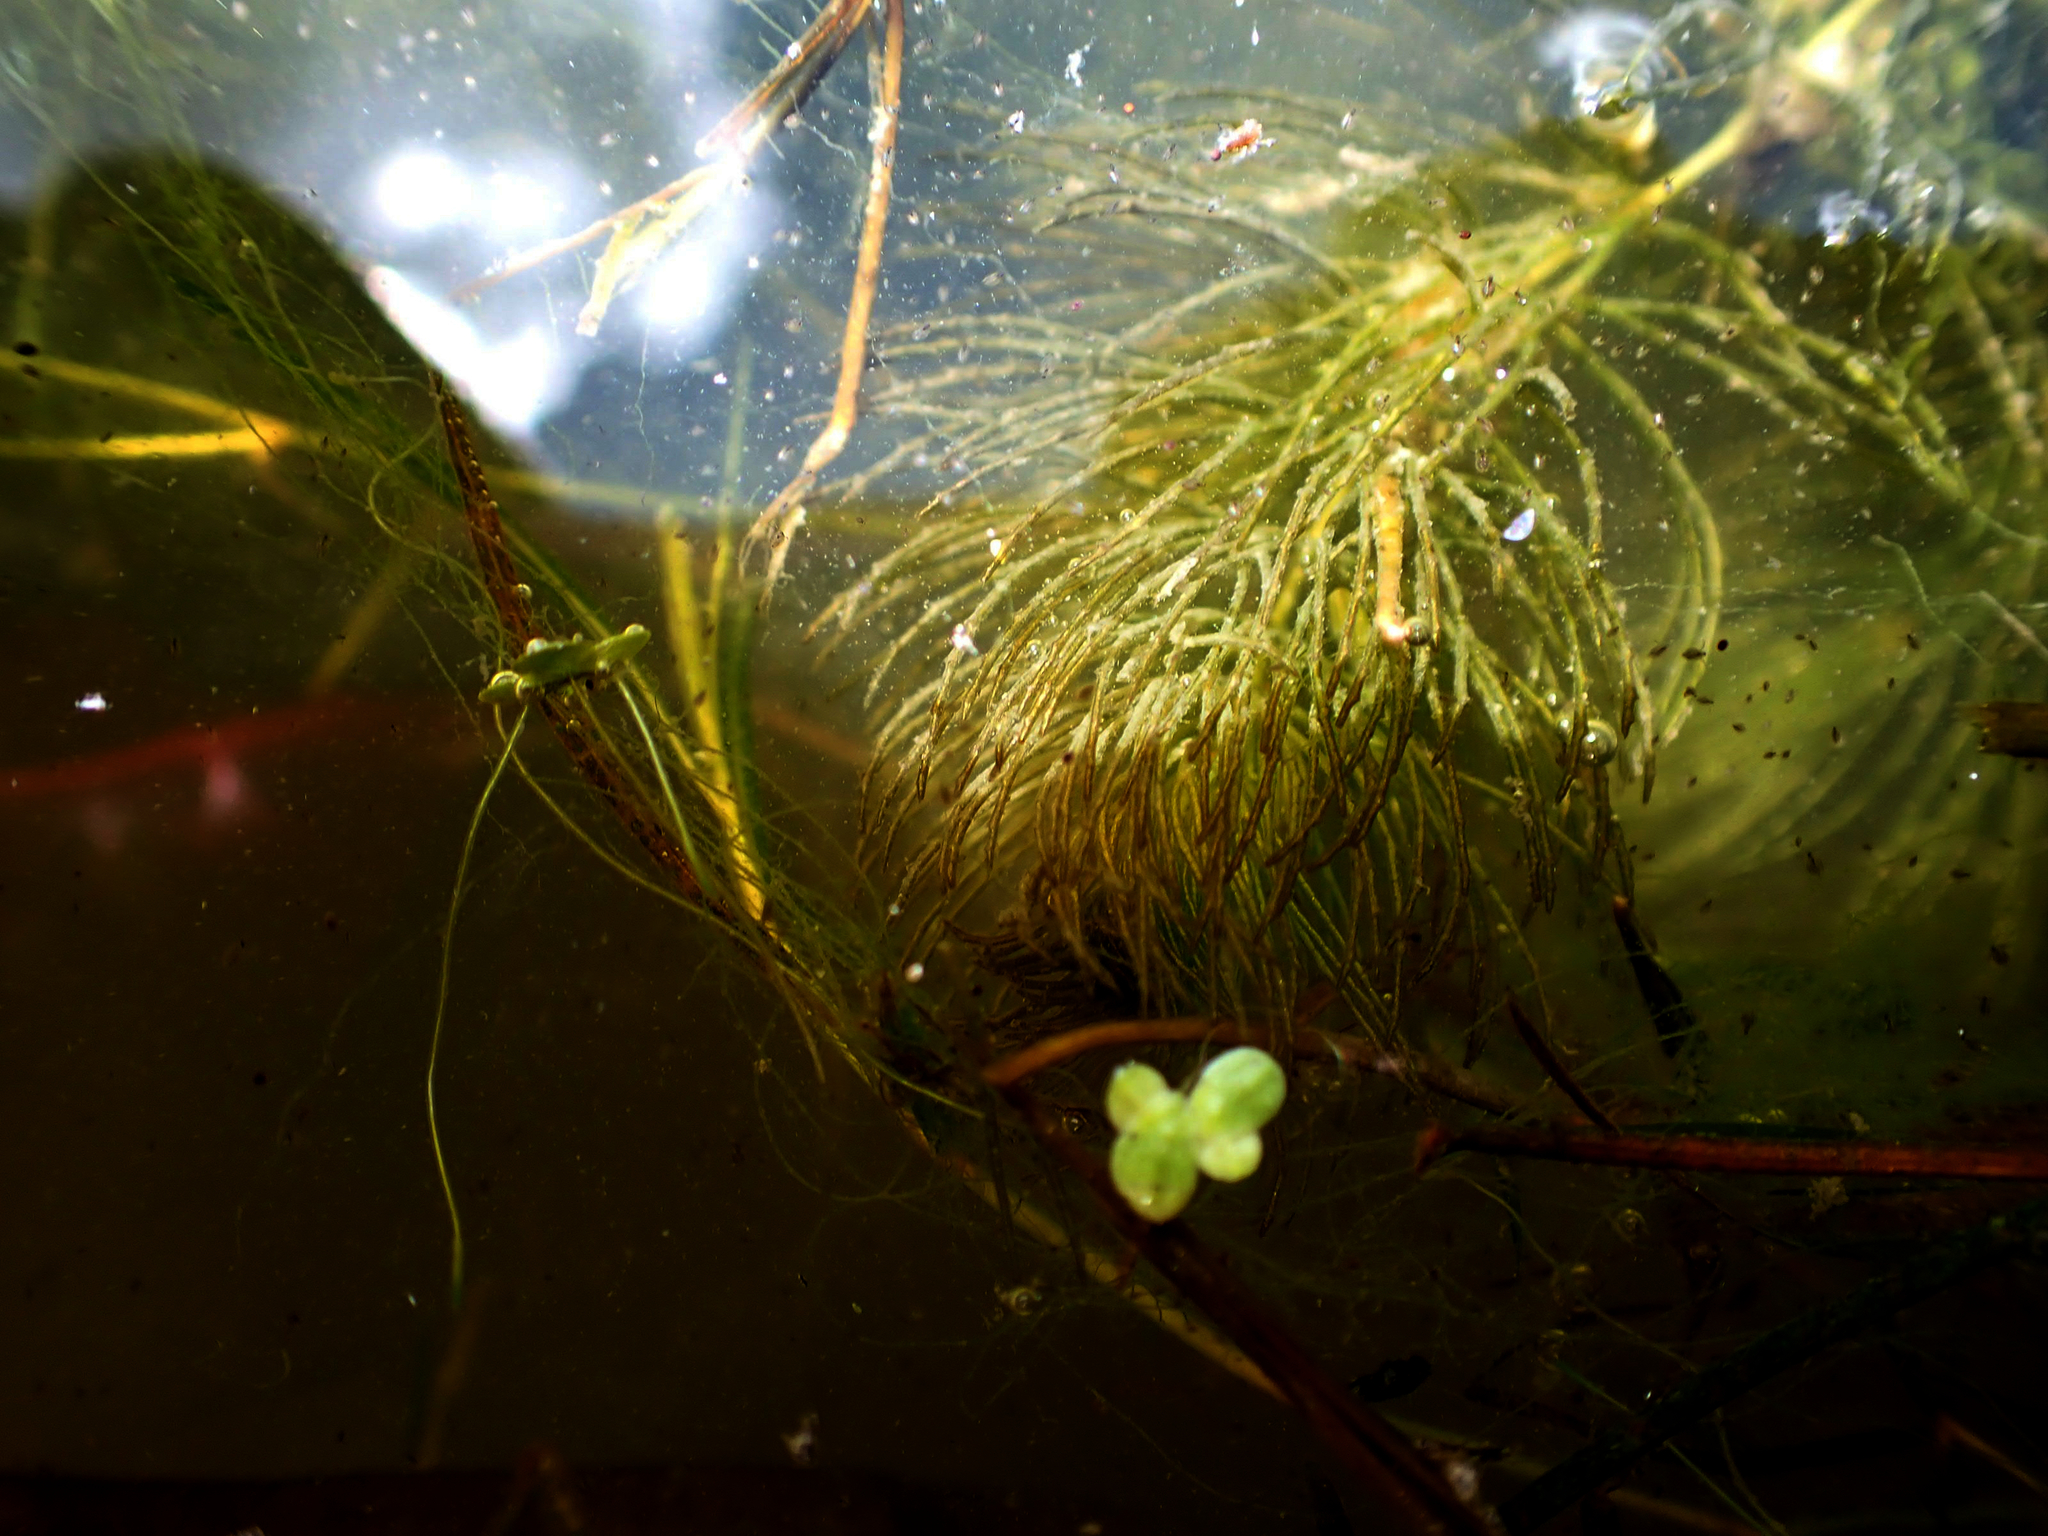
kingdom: Plantae
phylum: Tracheophyta
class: Magnoliopsida
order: Ceratophyllales
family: Ceratophyllaceae
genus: Ceratophyllum
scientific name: Ceratophyllum demersum
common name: Rigid hornwort
